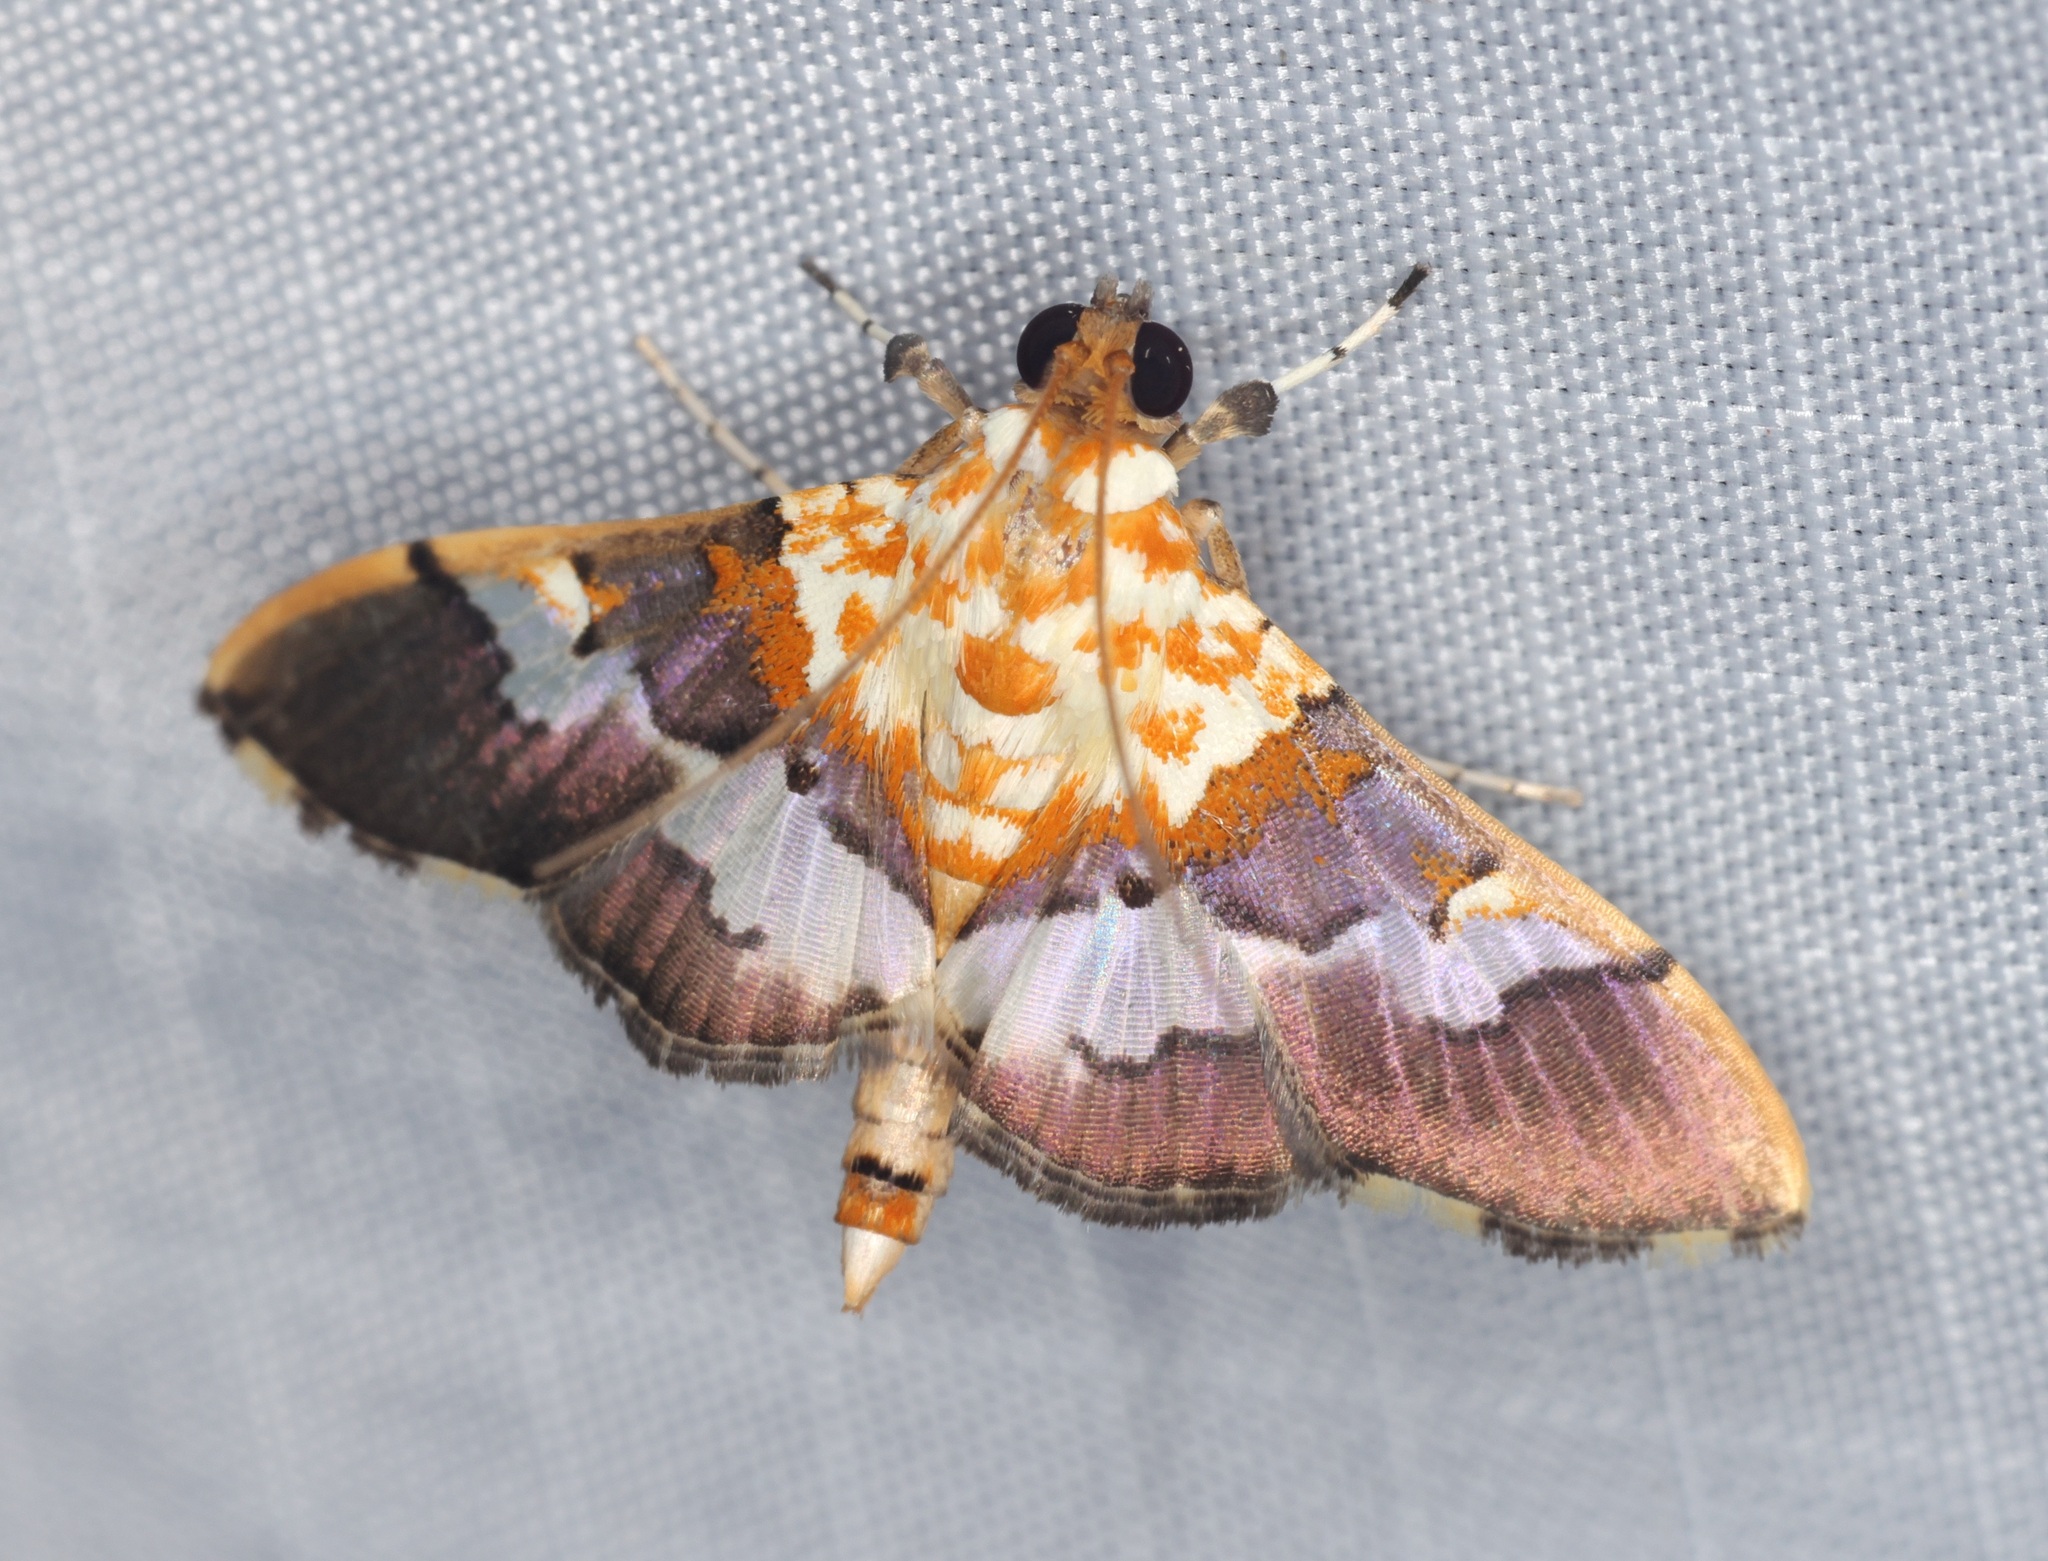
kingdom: Animalia
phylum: Arthropoda
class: Insecta
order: Lepidoptera
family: Crambidae
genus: Aetholix
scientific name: Aetholix flavibasalis
